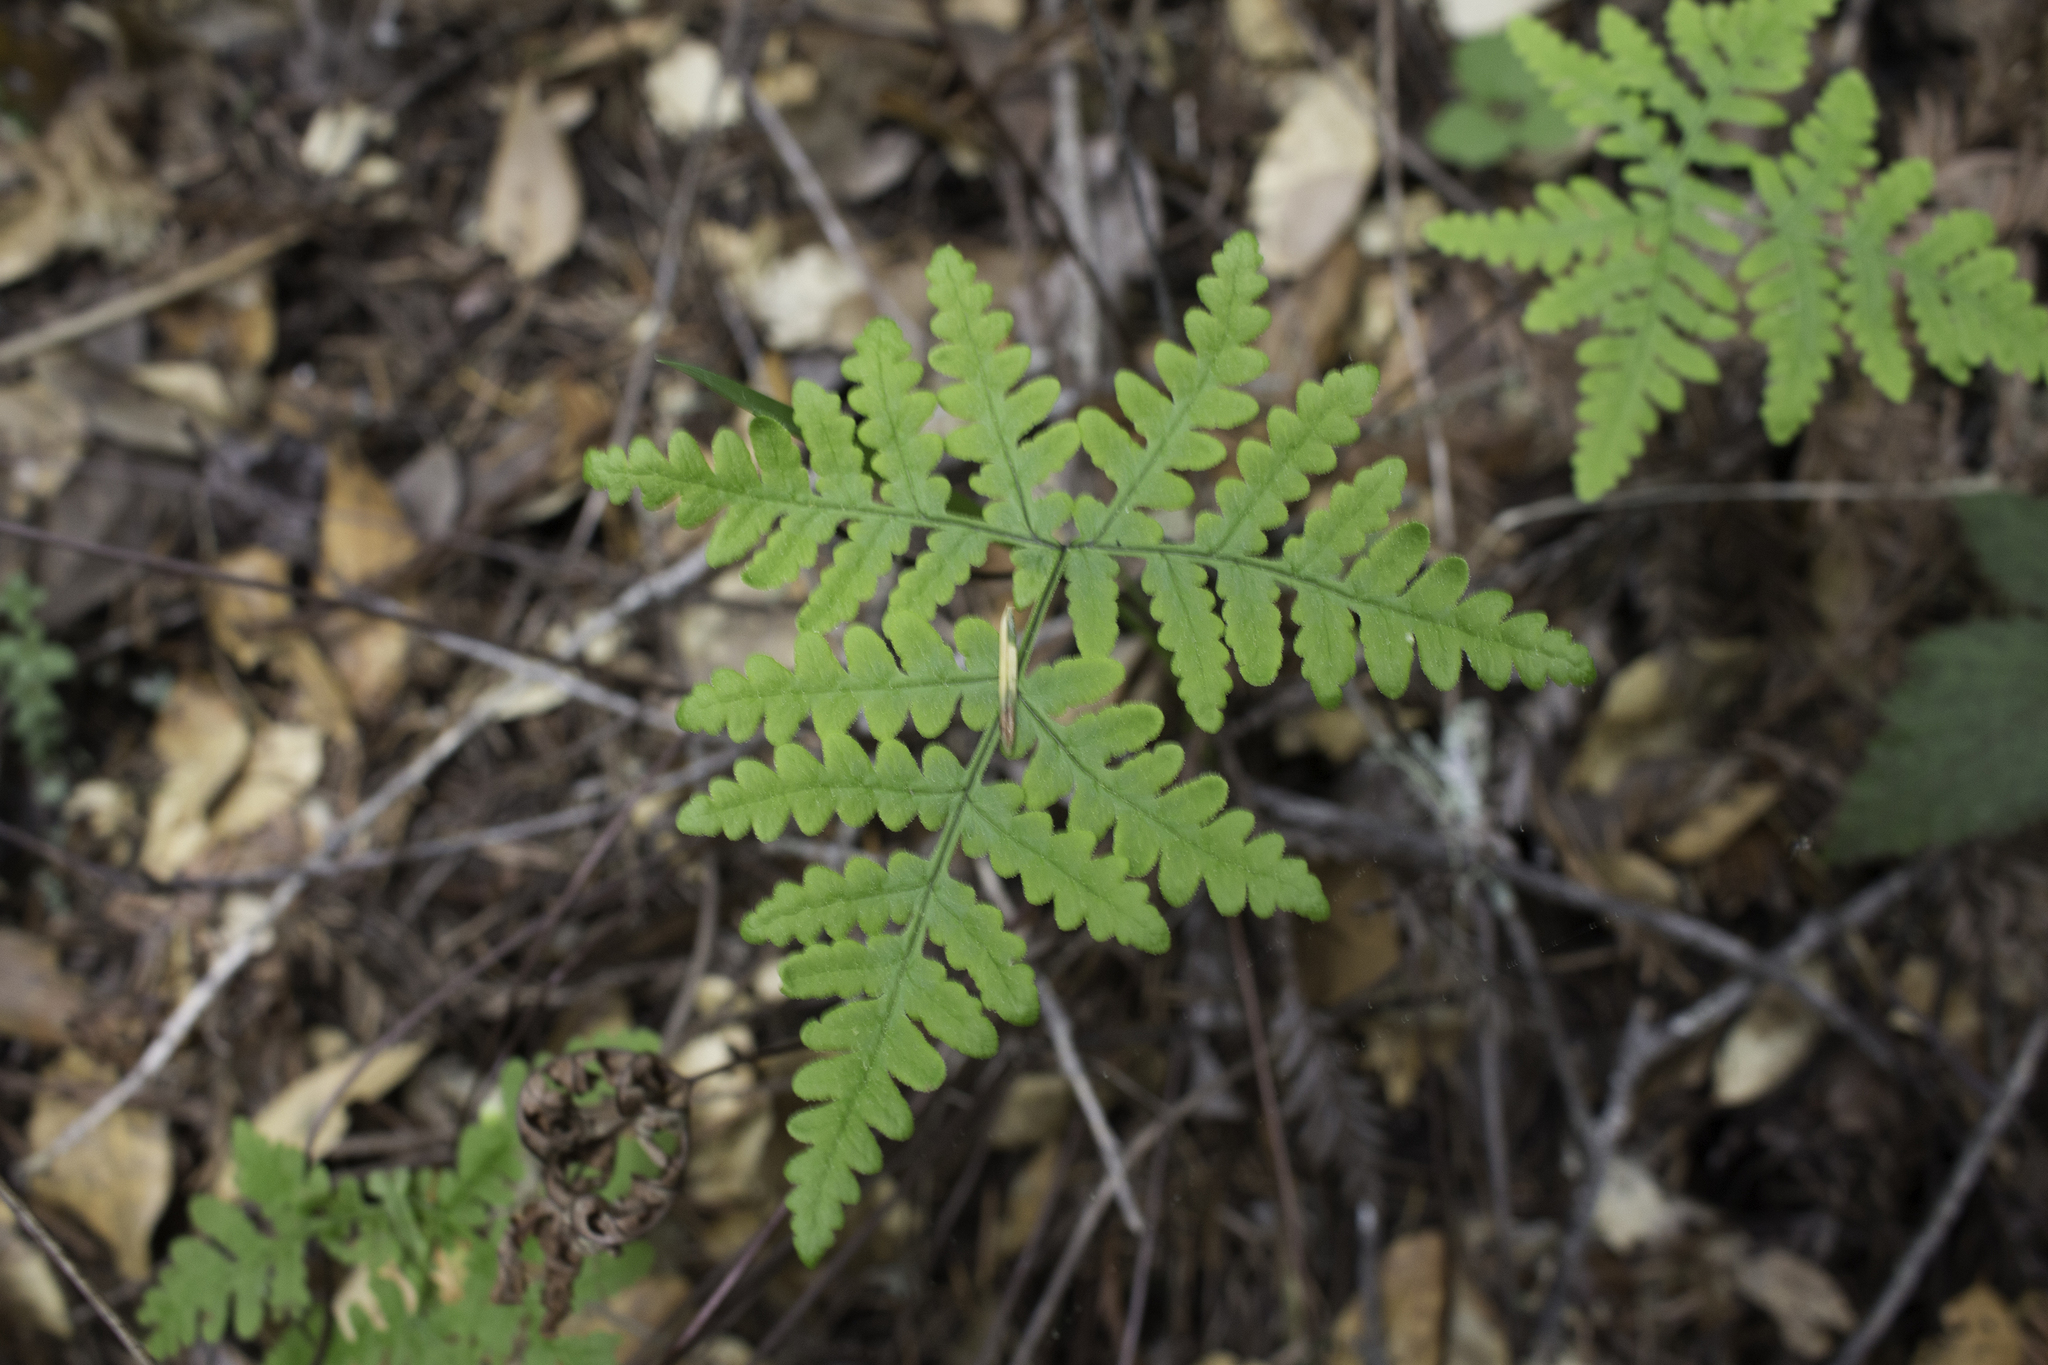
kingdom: Plantae
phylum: Tracheophyta
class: Polypodiopsida
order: Polypodiales
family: Pteridaceae
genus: Pentagramma
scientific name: Pentagramma triangularis
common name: Gold fern
